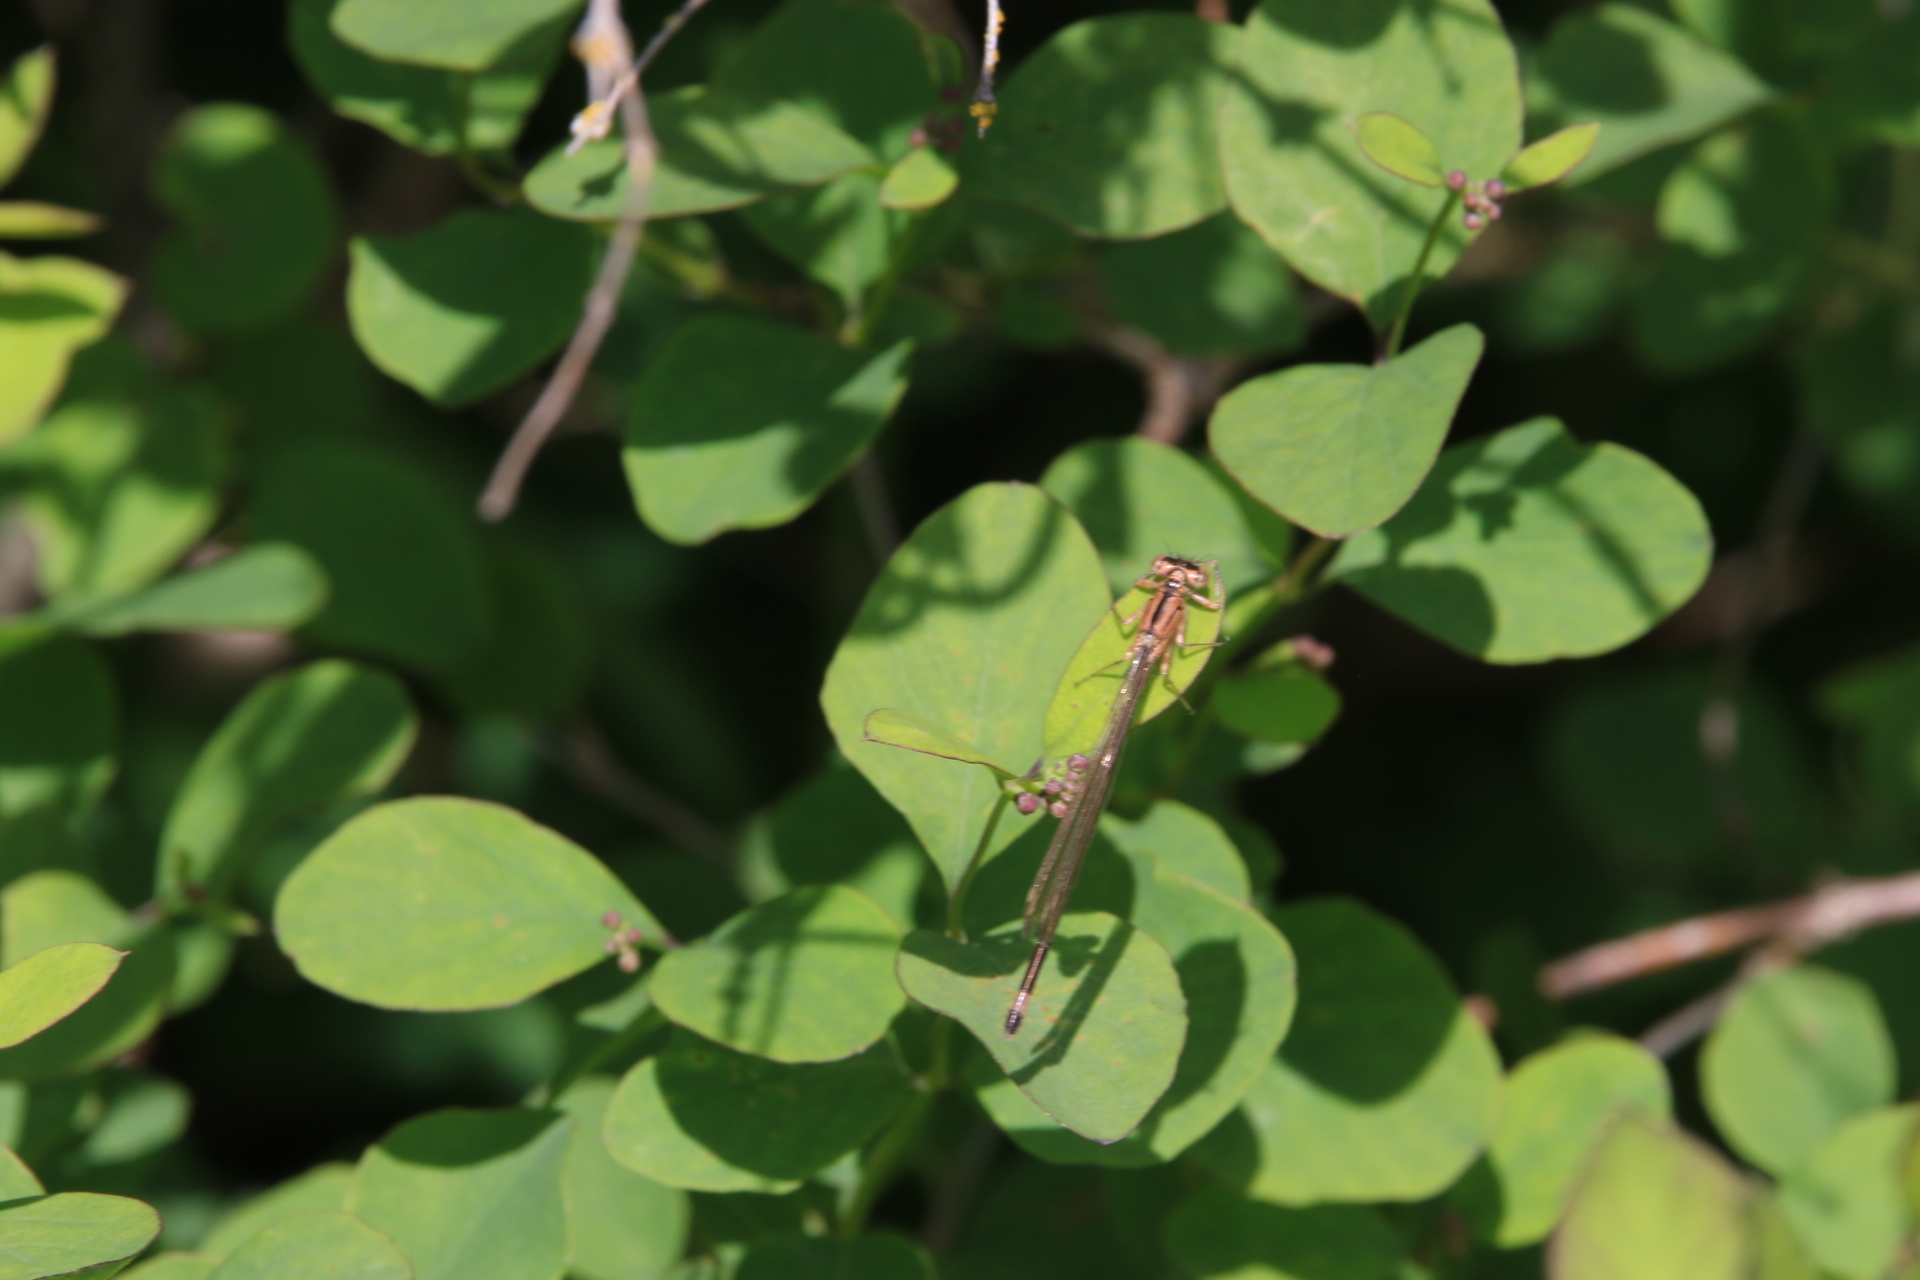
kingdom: Animalia
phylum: Arthropoda
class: Insecta
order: Odonata
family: Coenagrionidae
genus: Ischnura
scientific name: Ischnura cervula
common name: Pacific forktail
